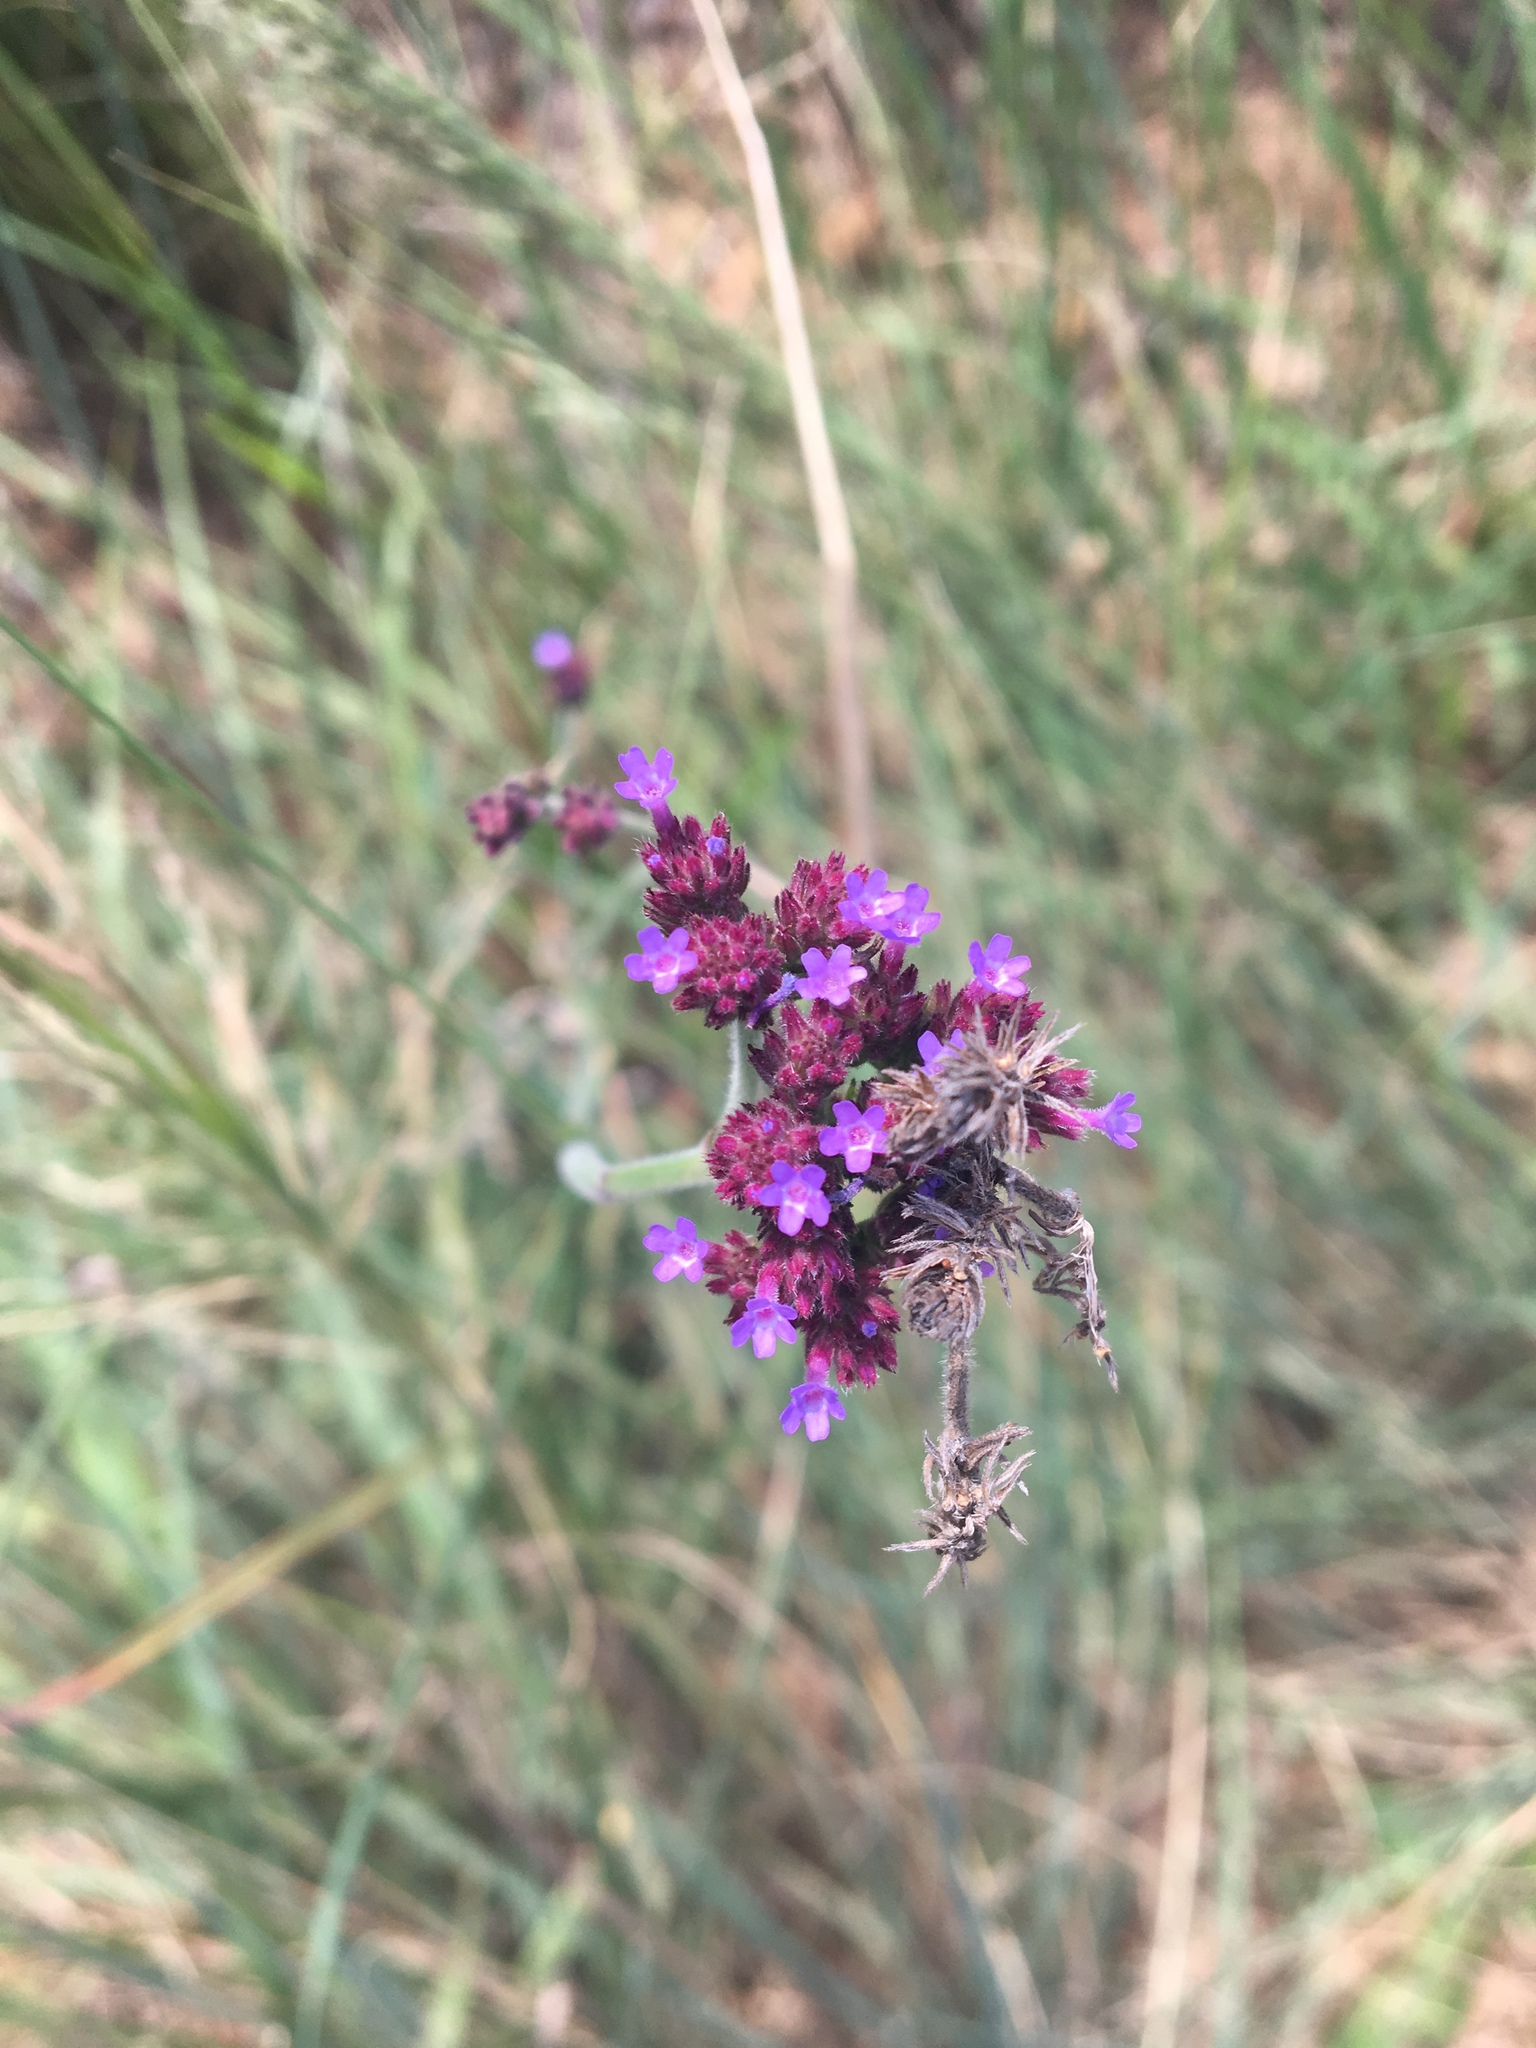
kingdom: Plantae
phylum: Tracheophyta
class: Magnoliopsida
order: Lamiales
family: Verbenaceae
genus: Verbena
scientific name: Verbena bonariensis
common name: Purpletop vervain
